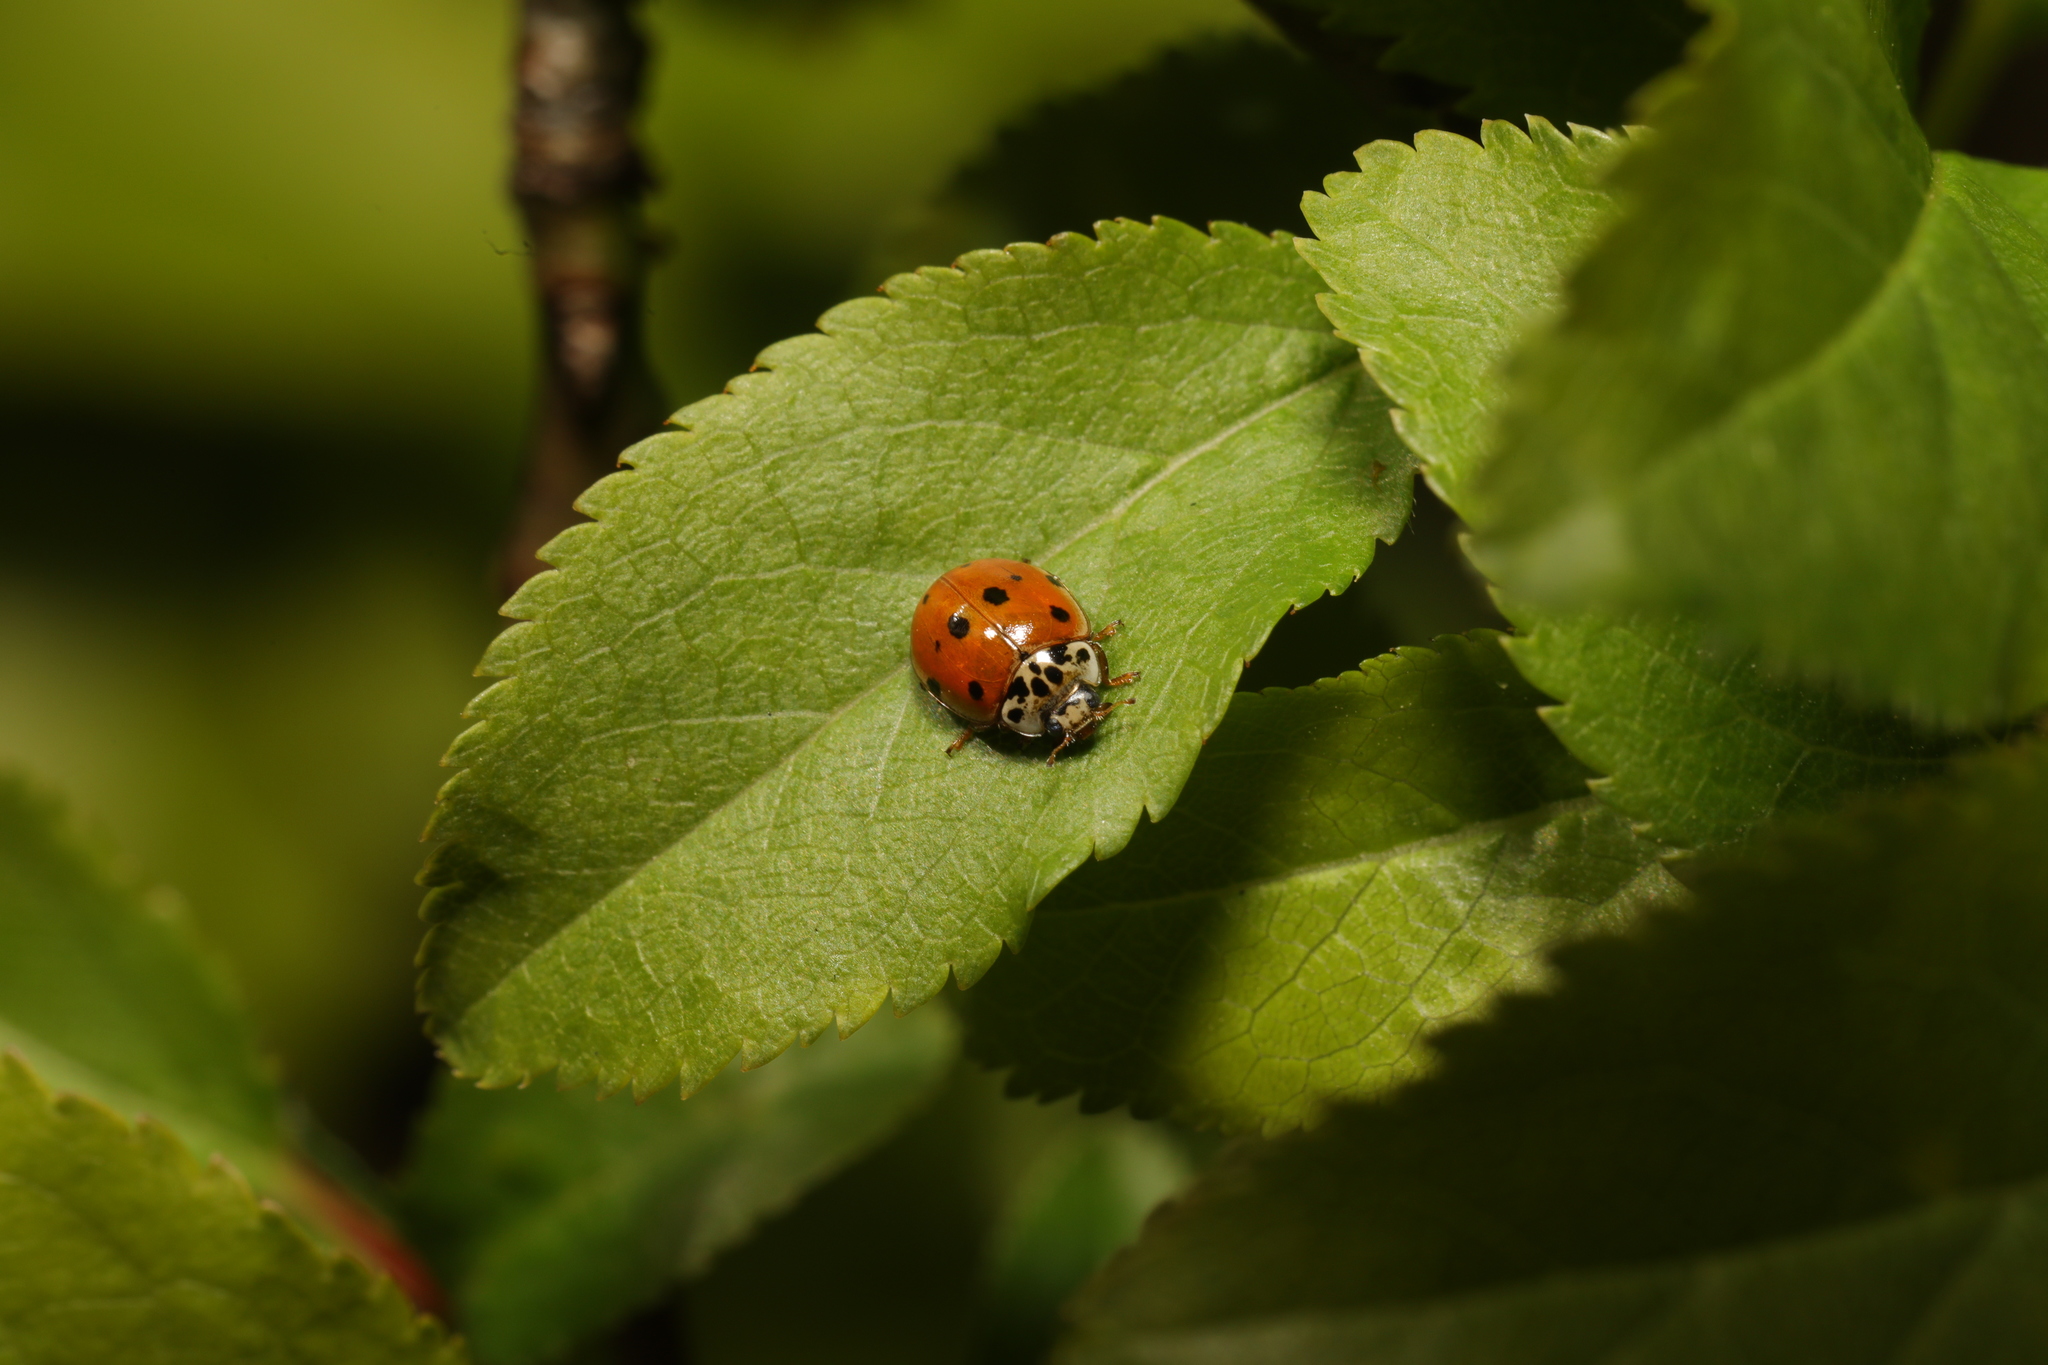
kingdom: Animalia
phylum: Arthropoda
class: Insecta
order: Coleoptera
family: Coccinellidae
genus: Adalia
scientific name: Adalia decempunctata
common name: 10-spot ladybird
